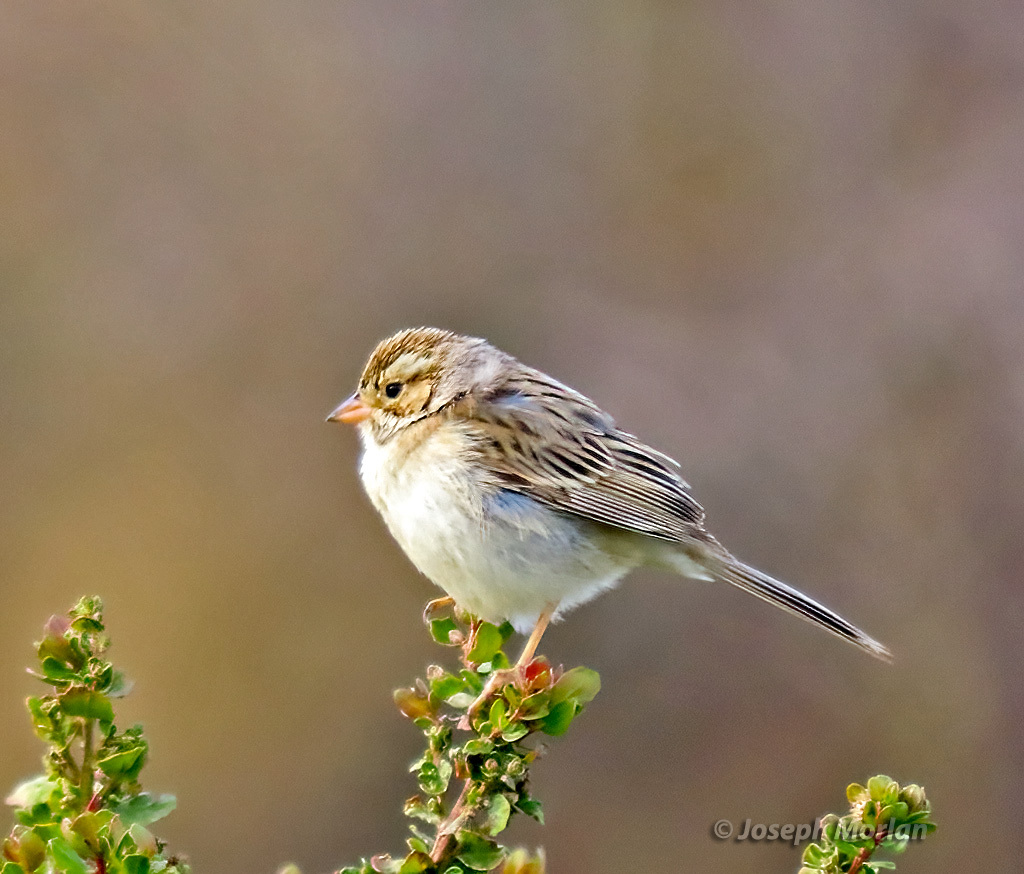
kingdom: Animalia
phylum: Chordata
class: Aves
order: Passeriformes
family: Passerellidae
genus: Spizella
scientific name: Spizella pallida
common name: Clay-colored sparrow
